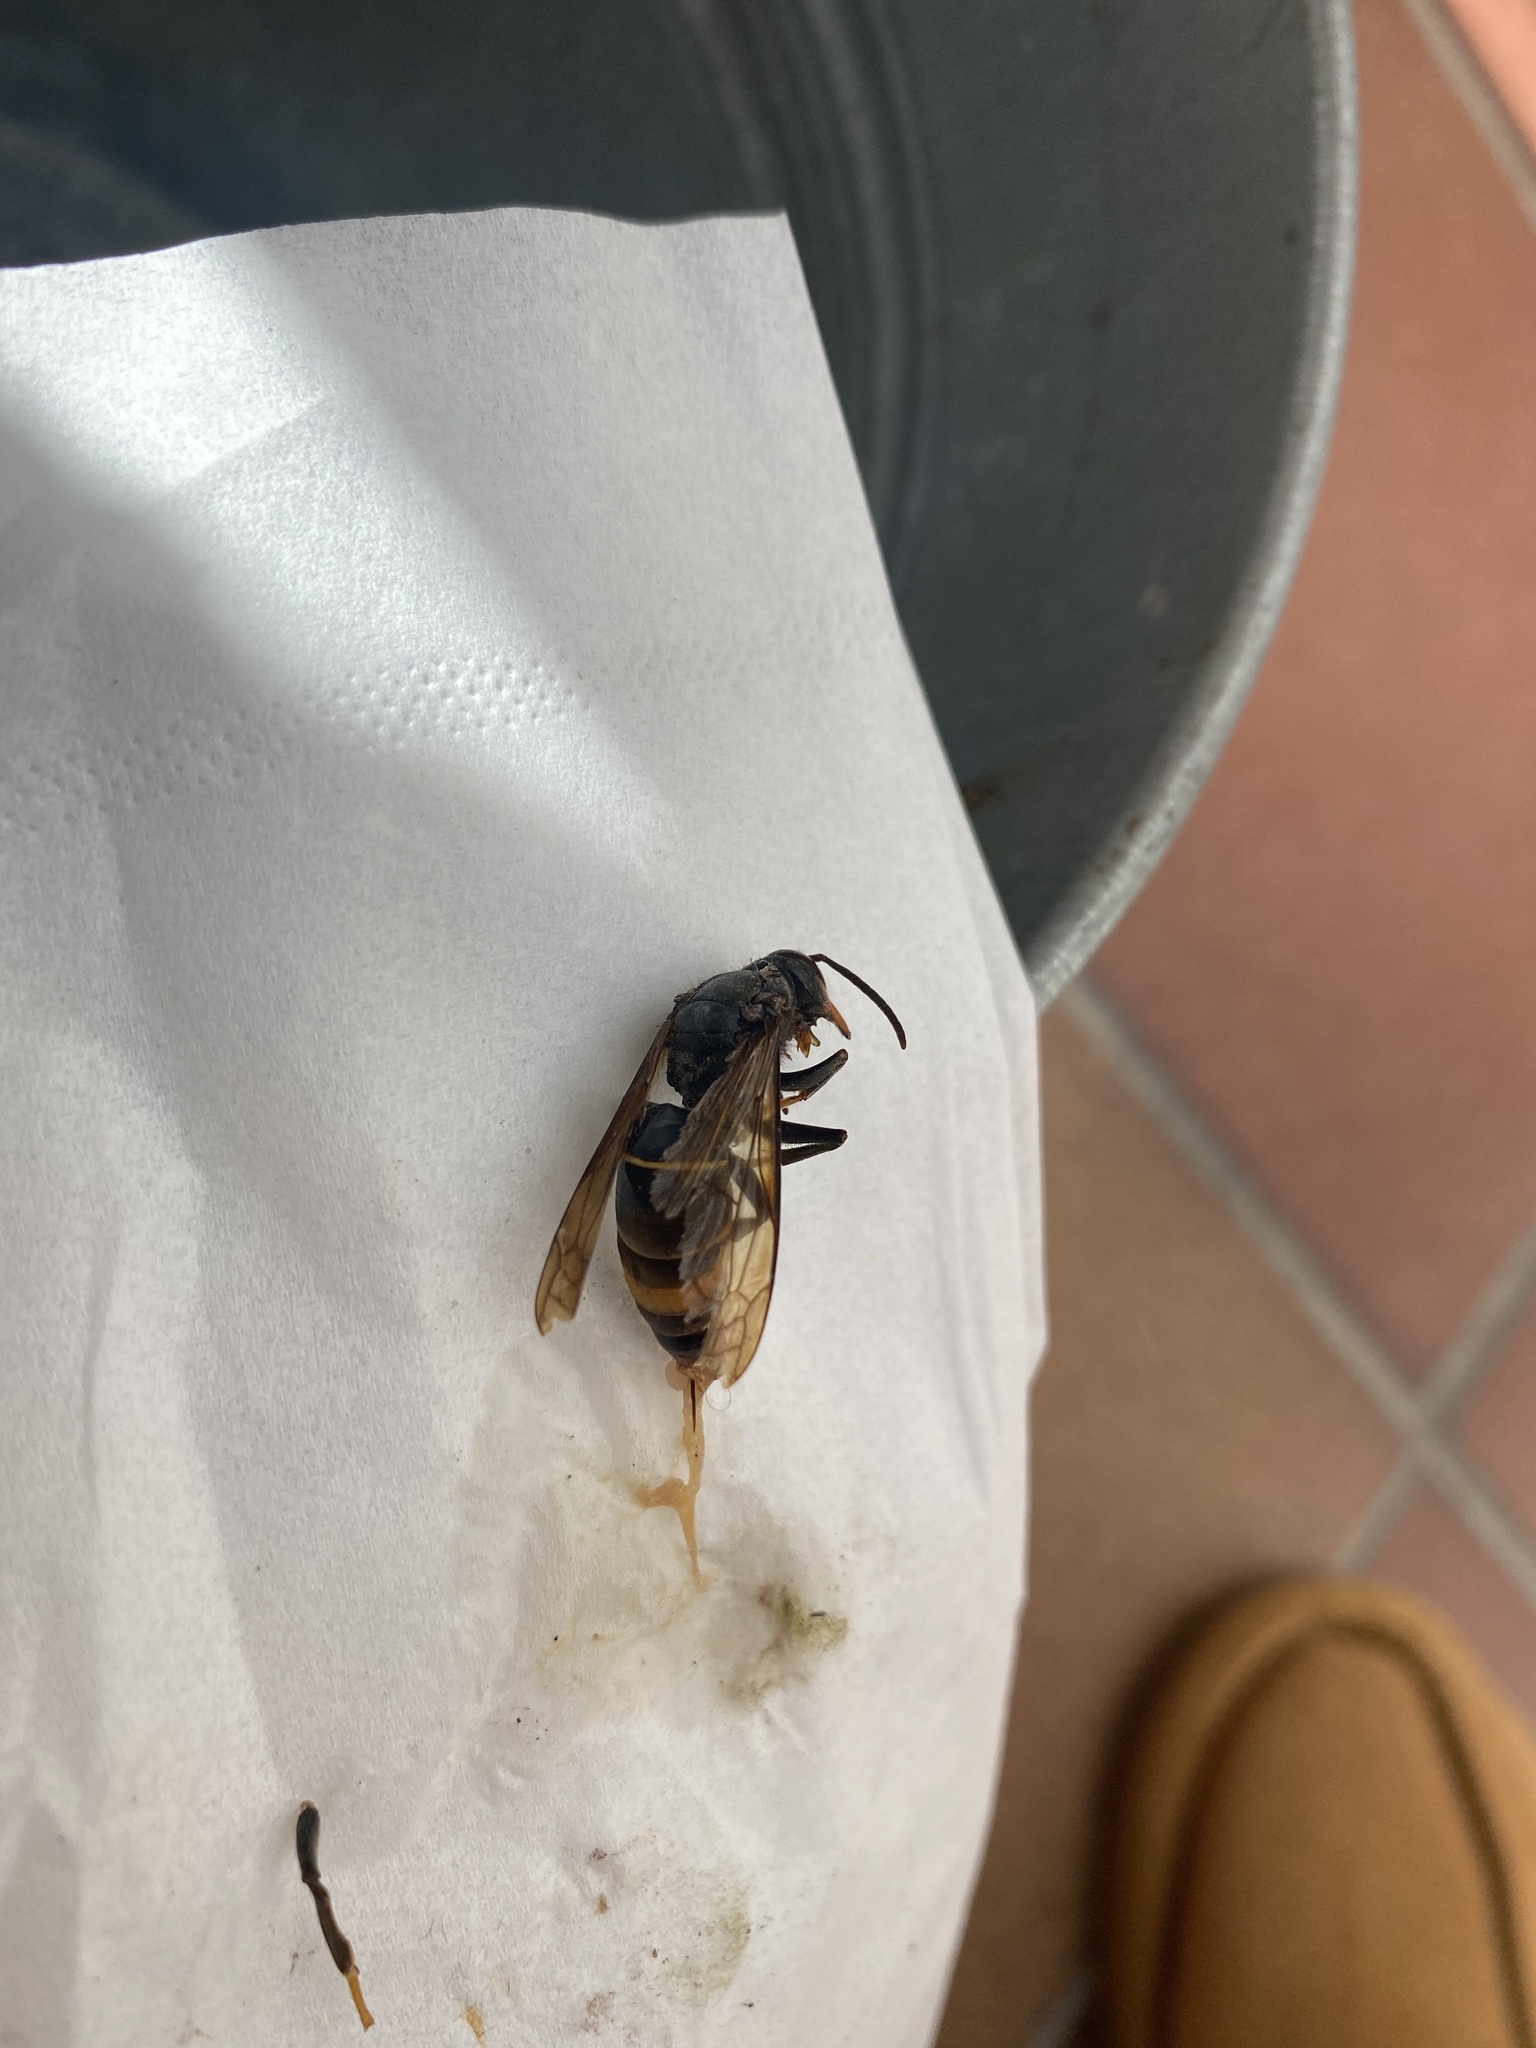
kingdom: Animalia
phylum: Arthropoda
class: Insecta
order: Hymenoptera
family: Vespidae
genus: Vespa
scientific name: Vespa velutina
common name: Asian hornet
